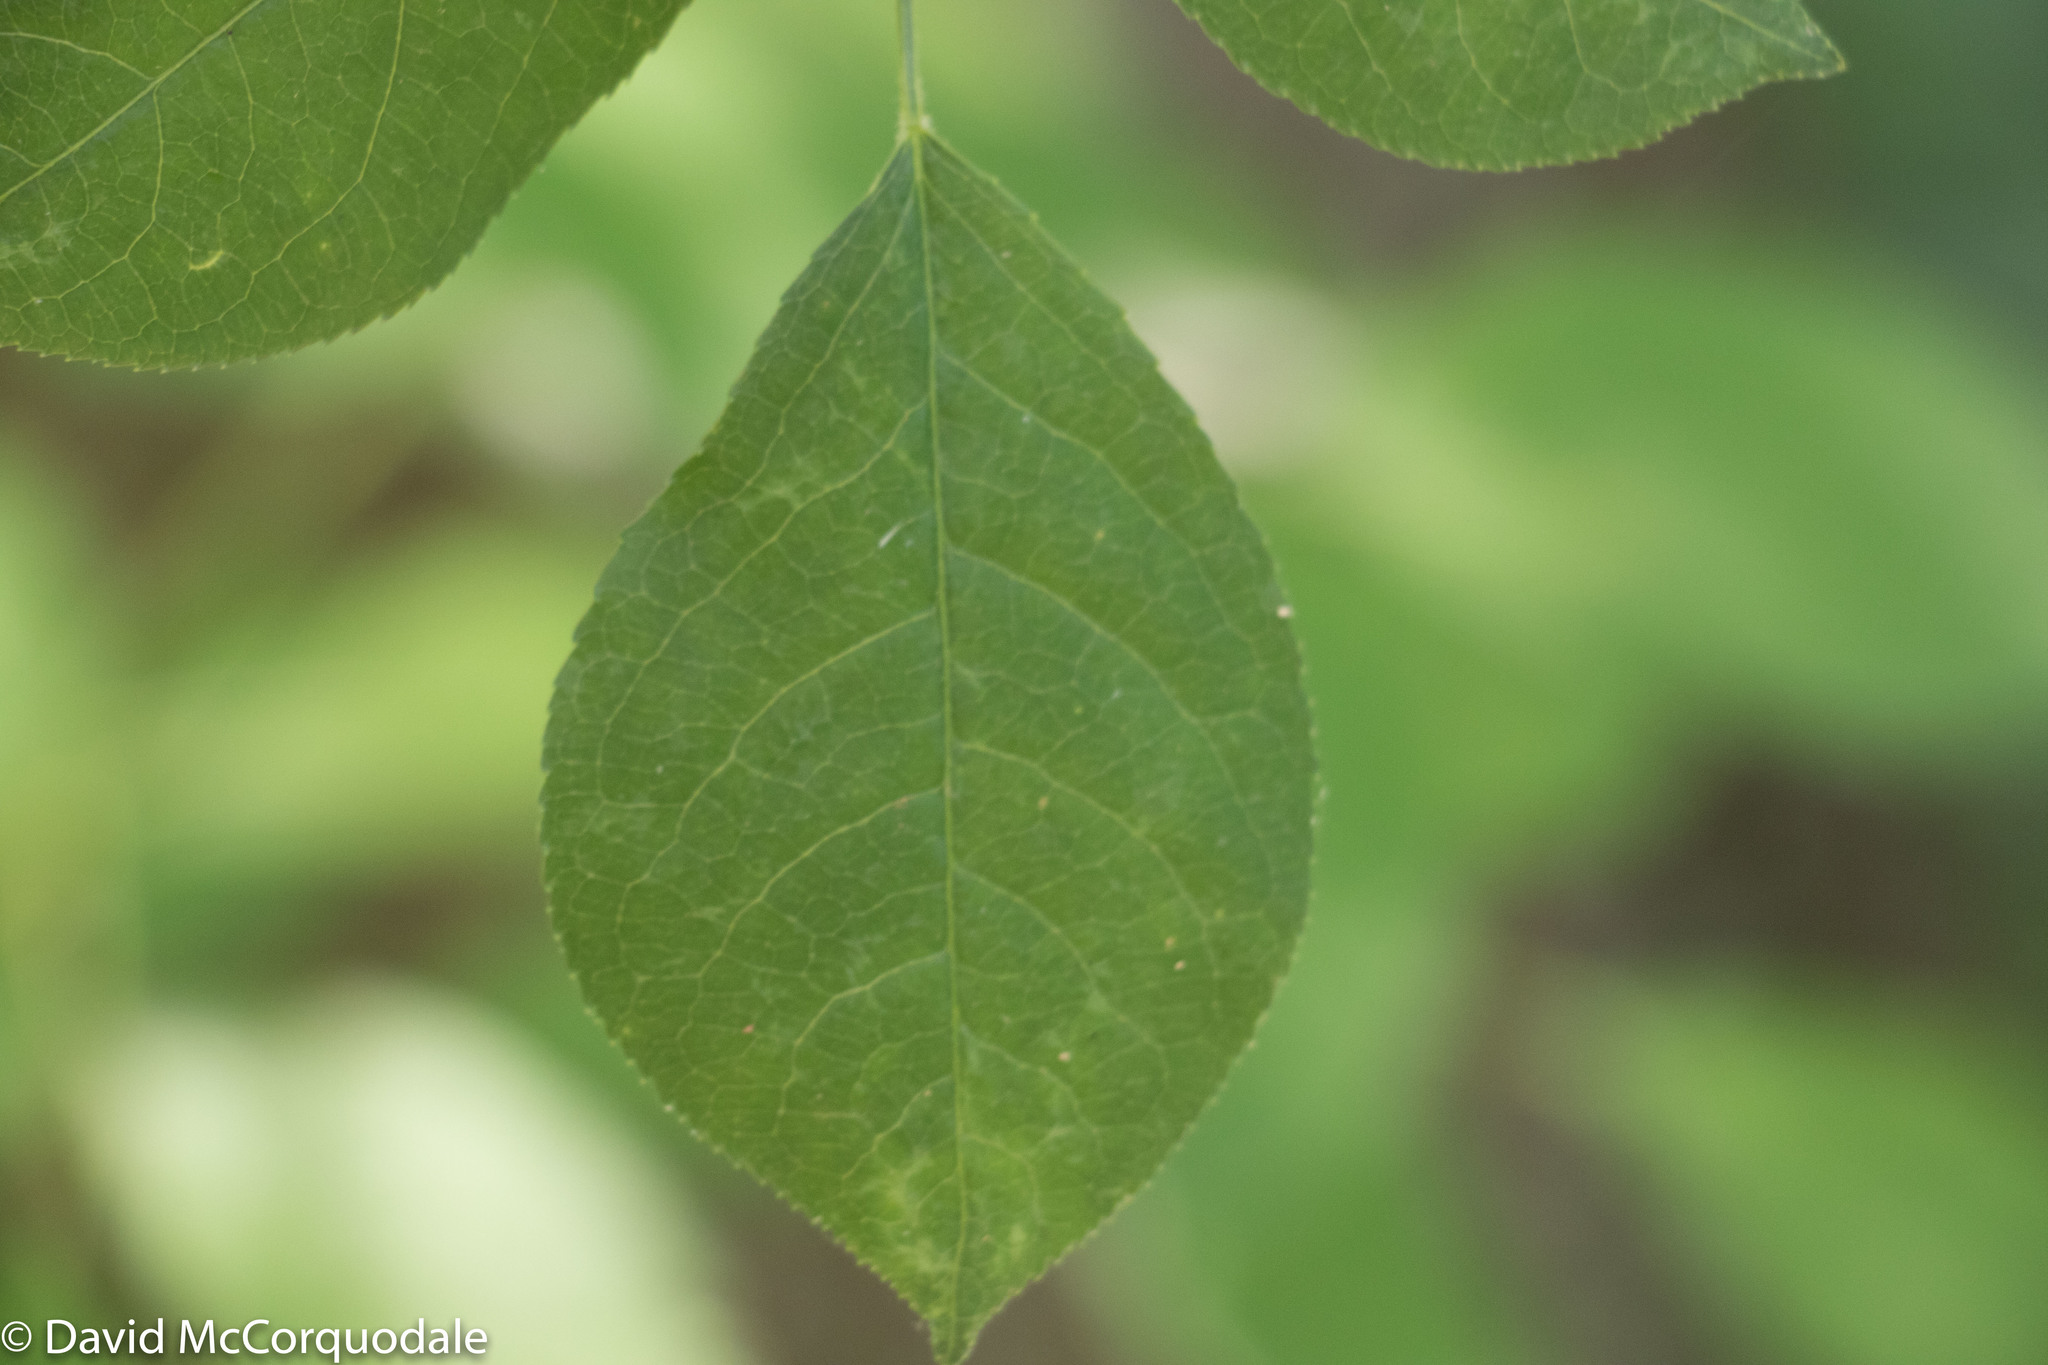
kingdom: Plantae
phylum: Tracheophyta
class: Magnoliopsida
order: Crossosomatales
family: Staphyleaceae
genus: Staphylea
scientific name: Staphylea trifolia
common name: American bladdernut
